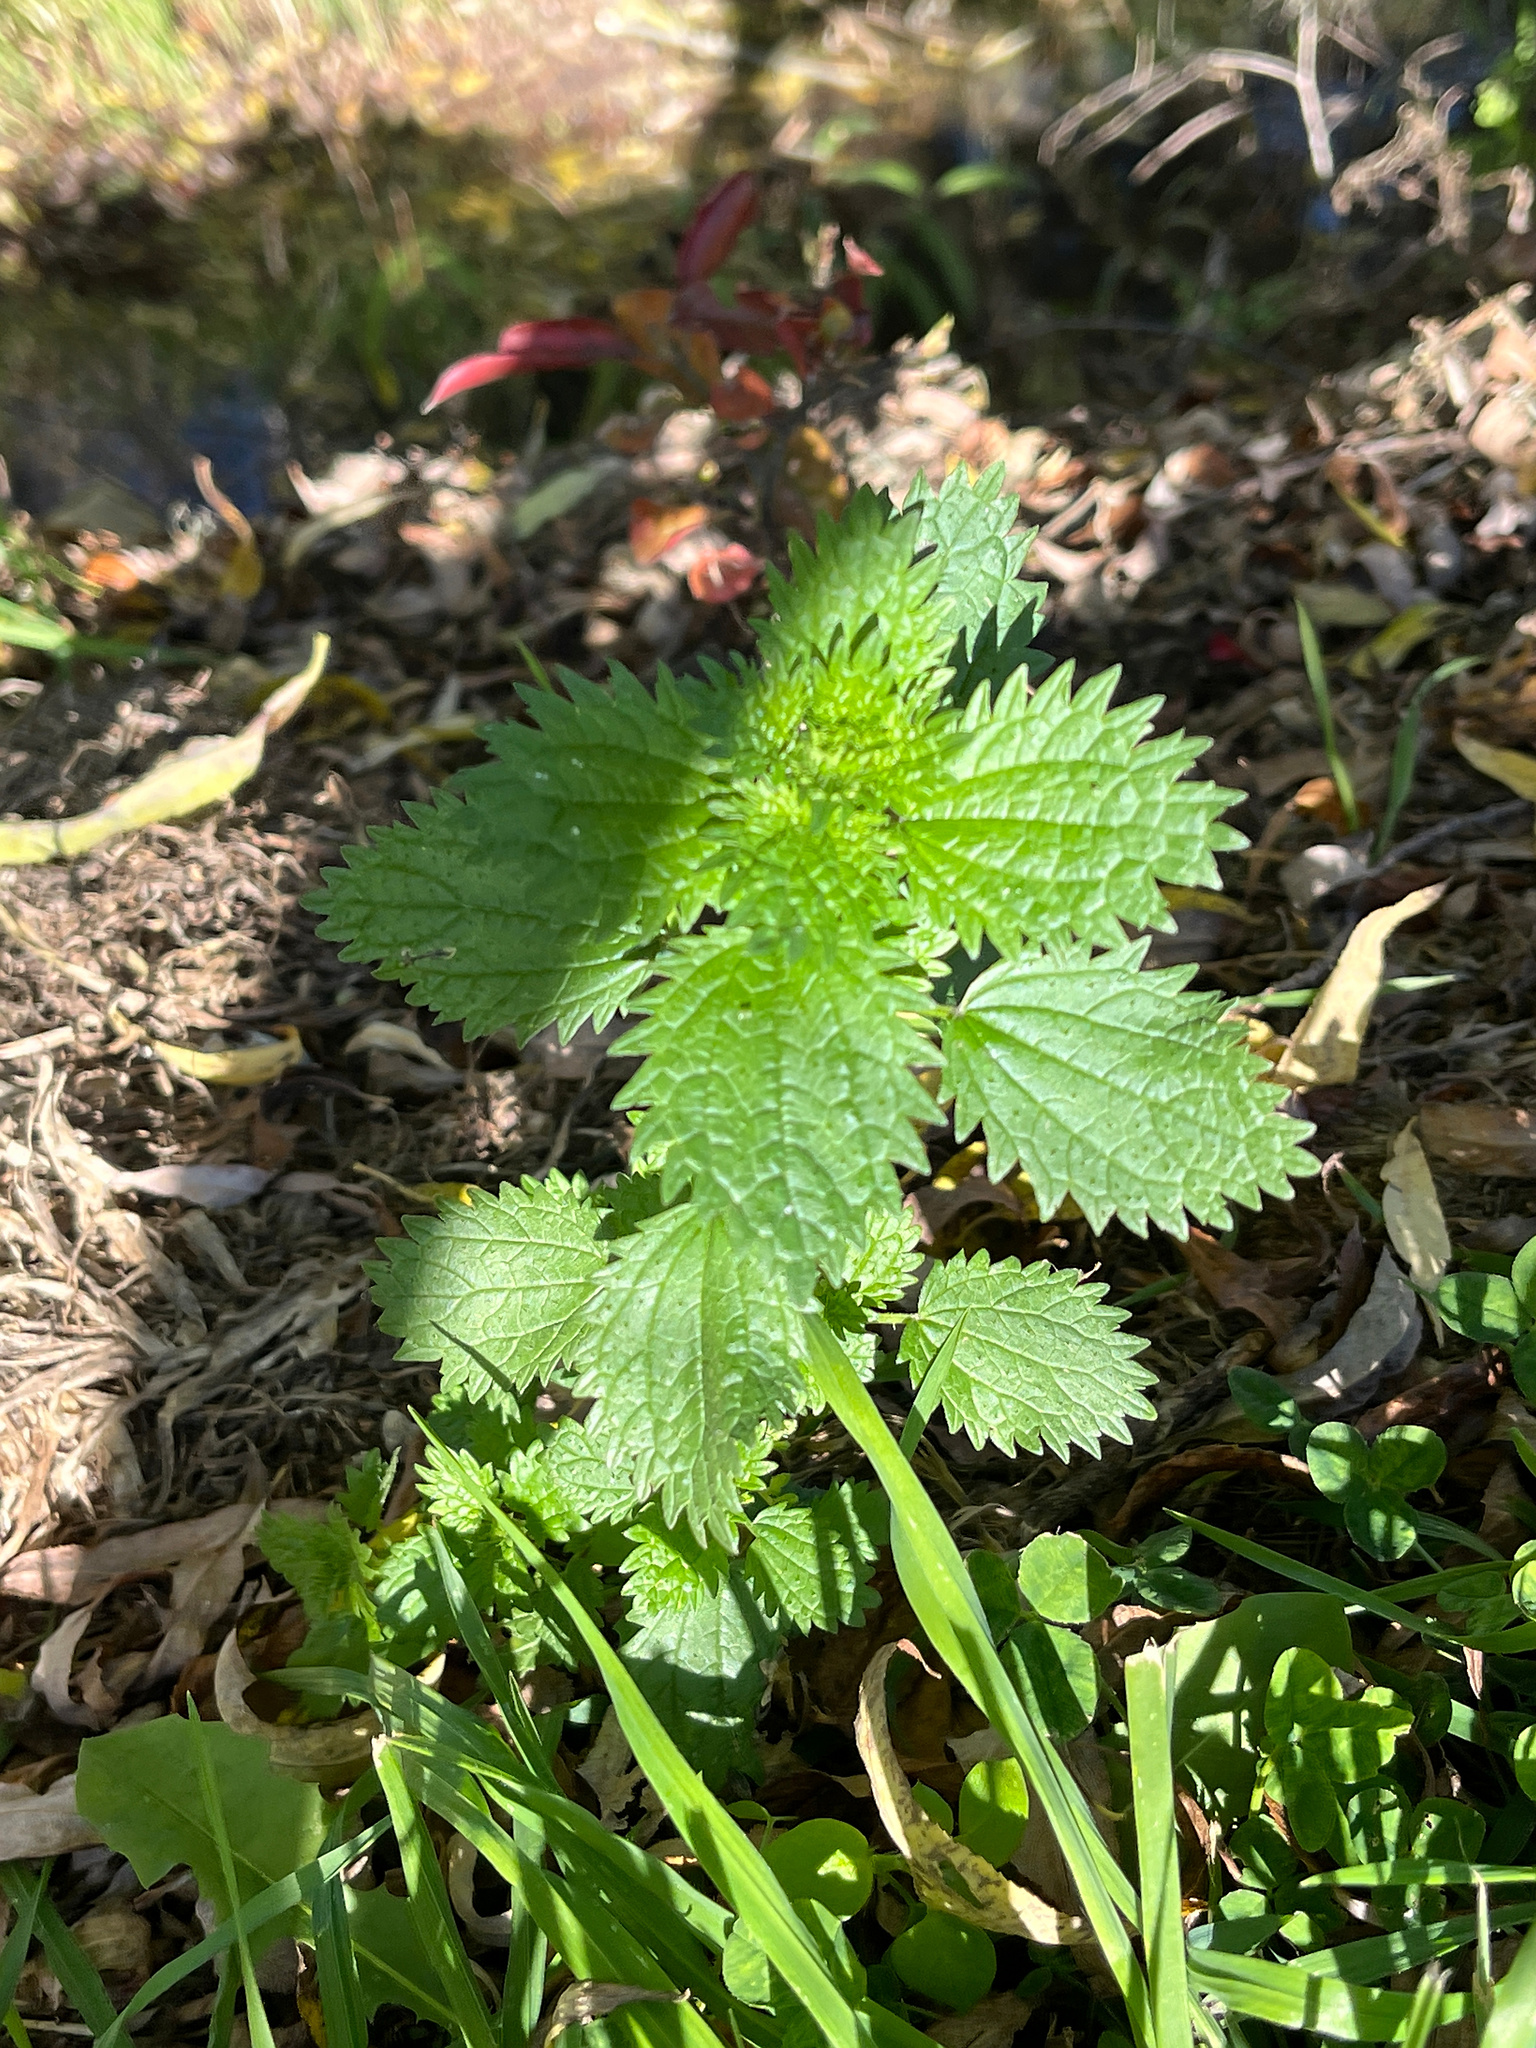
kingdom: Plantae
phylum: Tracheophyta
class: Magnoliopsida
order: Rosales
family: Urticaceae
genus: Urtica
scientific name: Urtica urens
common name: Dwarf nettle
